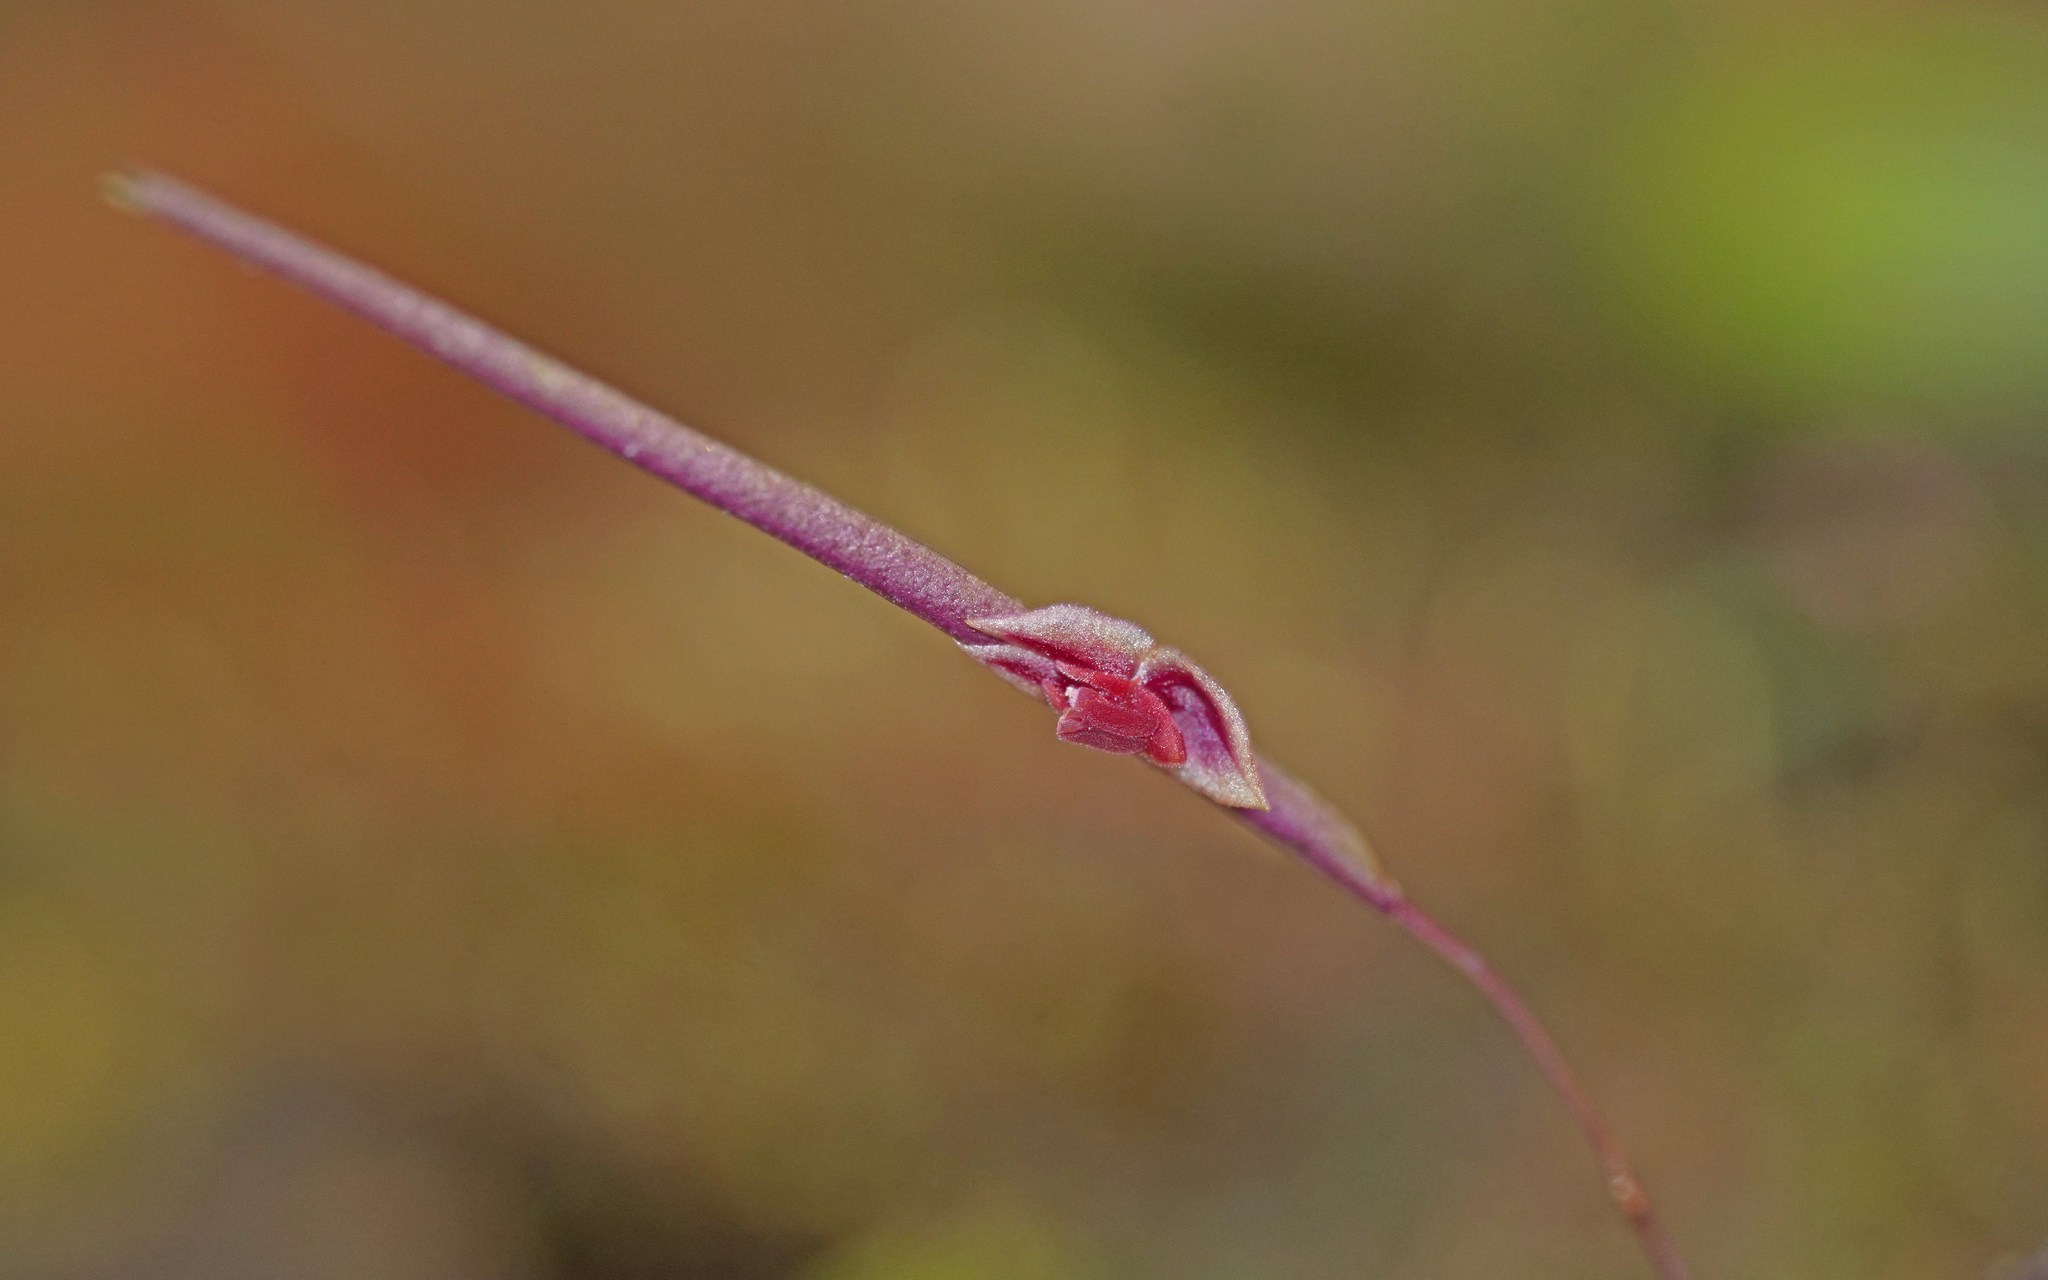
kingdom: Plantae
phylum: Tracheophyta
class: Liliopsida
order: Asparagales
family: Orchidaceae
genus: Lepanthes
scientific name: Lepanthes aciculifolia
